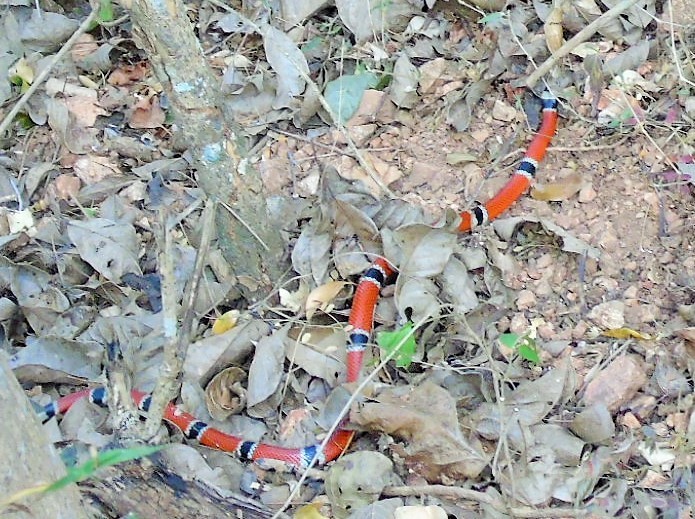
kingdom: Animalia
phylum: Chordata
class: Squamata
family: Elapidae
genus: Micrurus
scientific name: Micrurus distans
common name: Clear-banded coral snake
